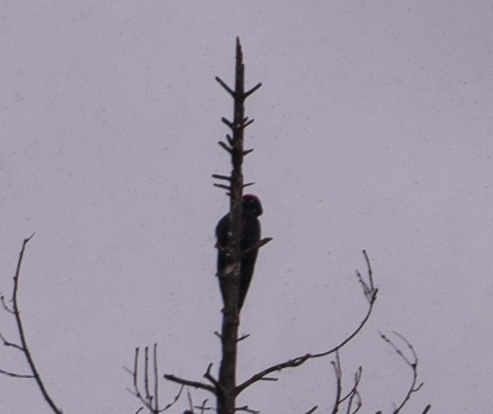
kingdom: Animalia
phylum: Chordata
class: Aves
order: Piciformes
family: Picidae
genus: Dryocopus
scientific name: Dryocopus martius
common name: Black woodpecker
